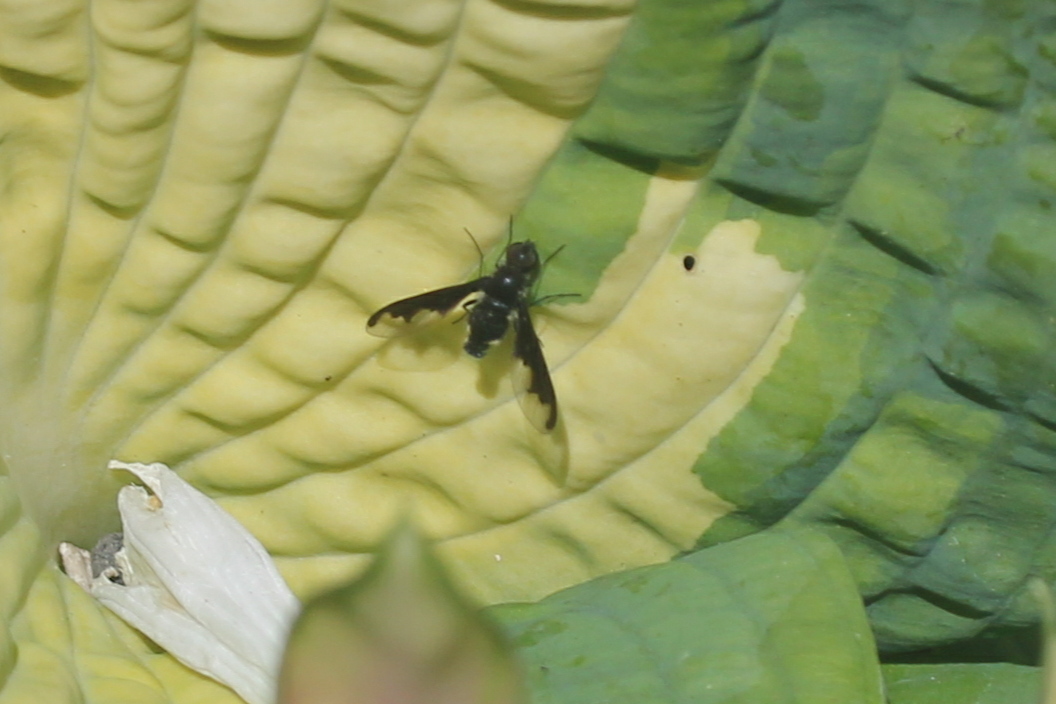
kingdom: Animalia
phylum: Arthropoda
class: Insecta
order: Diptera
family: Bombyliidae
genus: Anthrax
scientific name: Anthrax argyropygus
